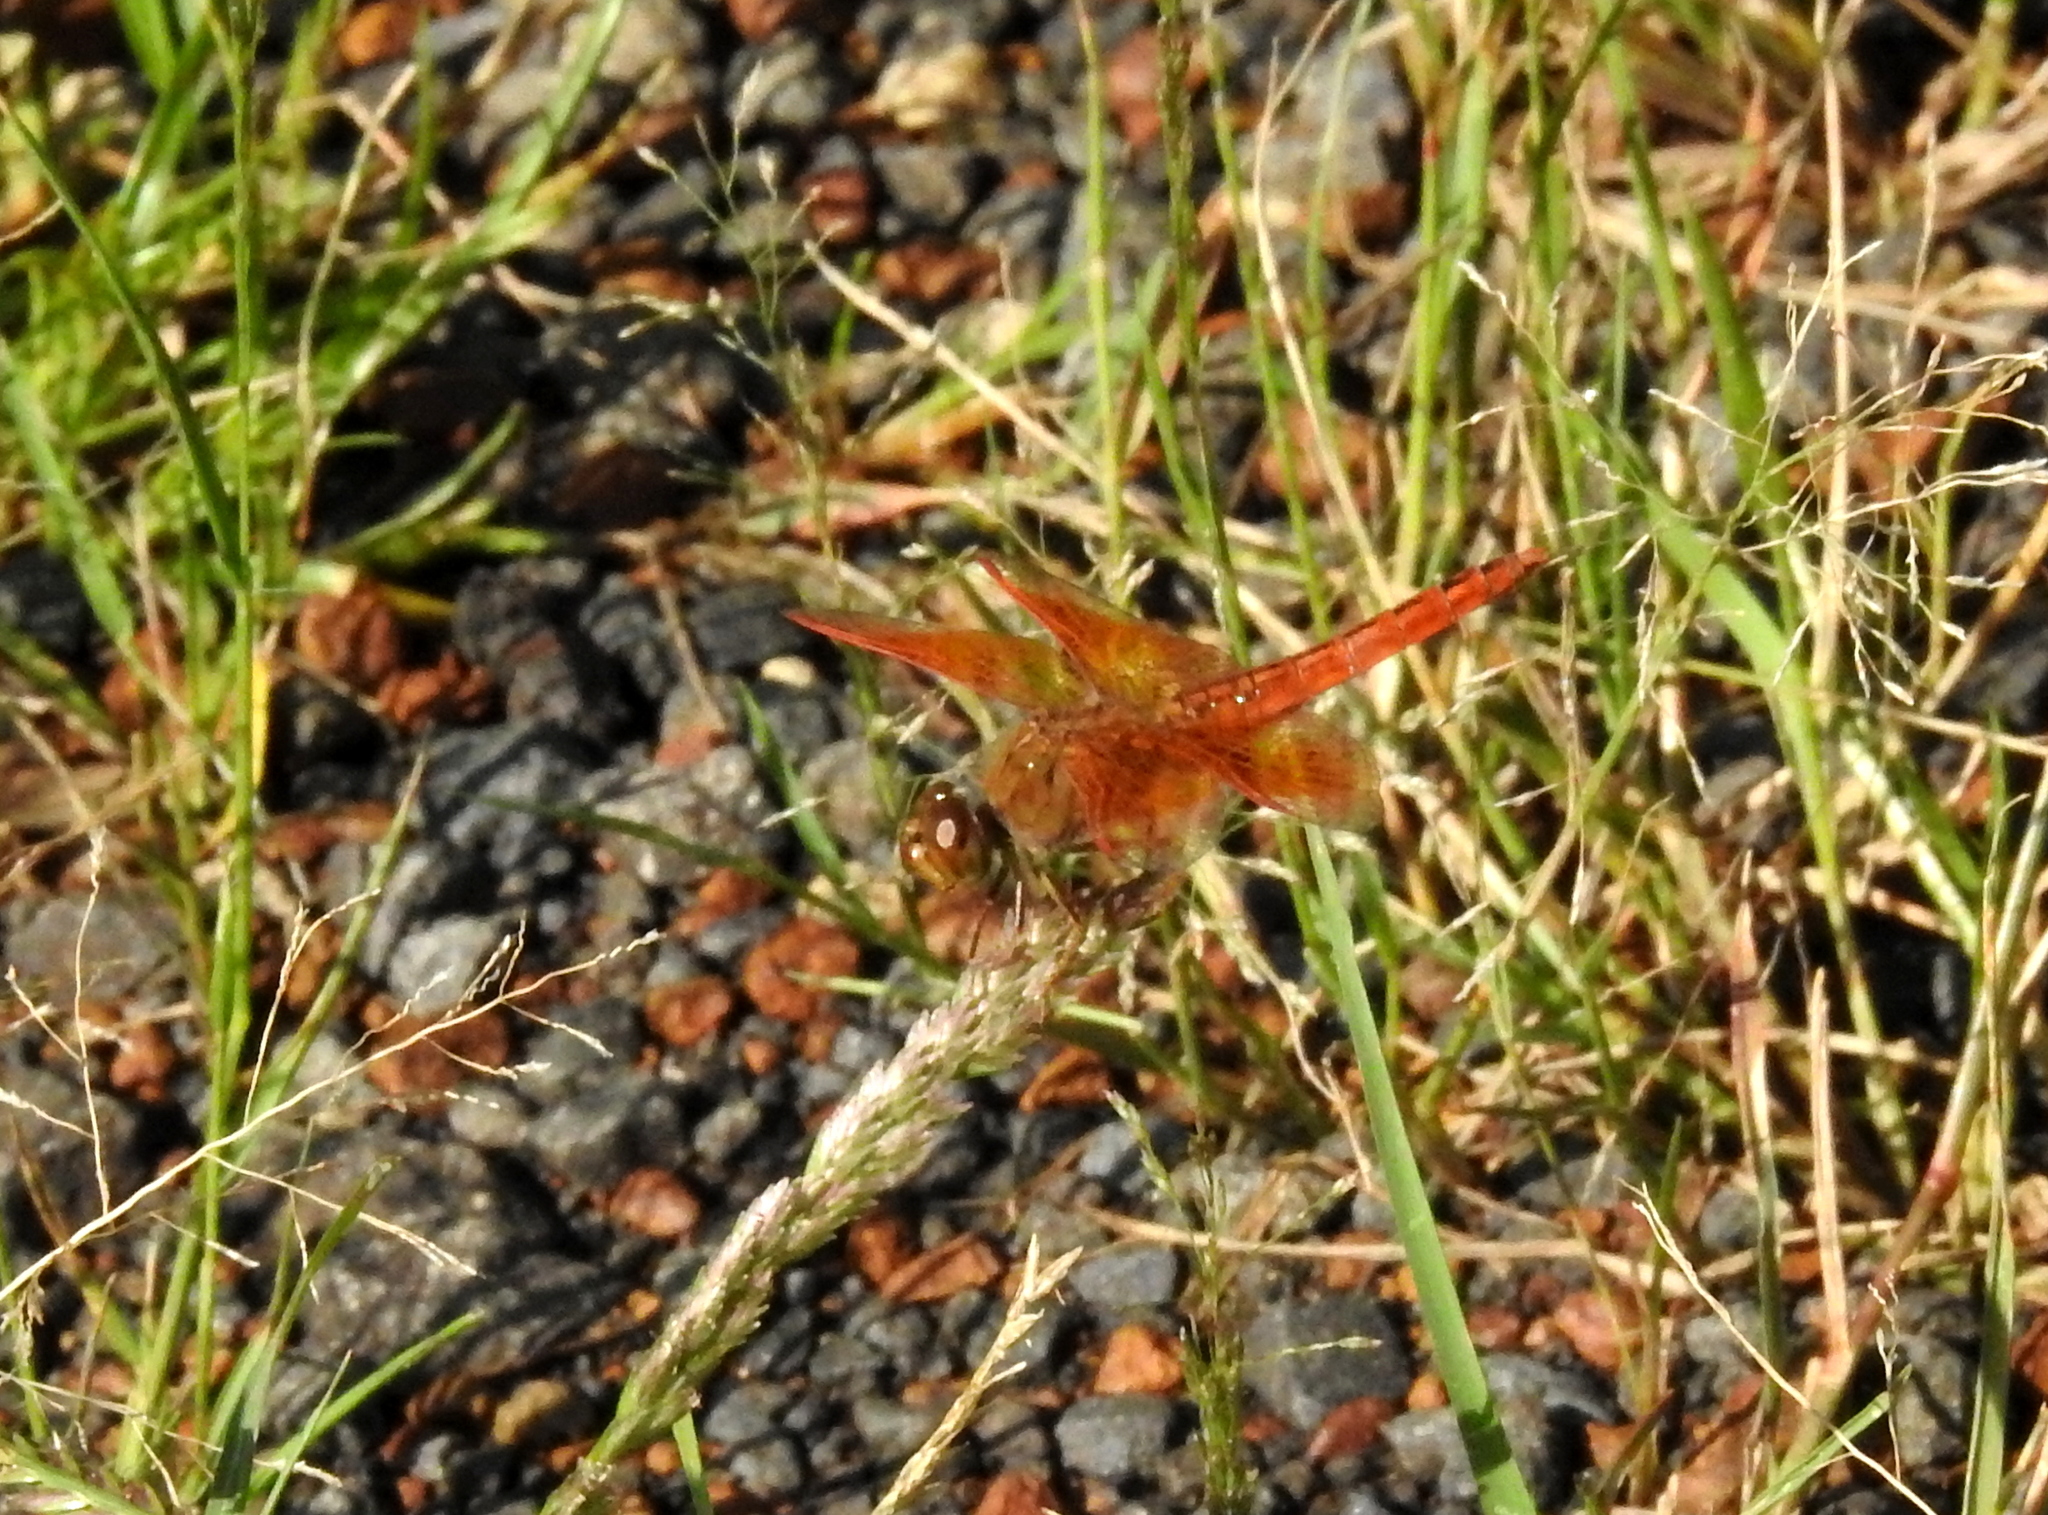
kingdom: Animalia
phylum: Arthropoda
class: Insecta
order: Odonata
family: Libellulidae
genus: Brachythemis
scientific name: Brachythemis contaminata
